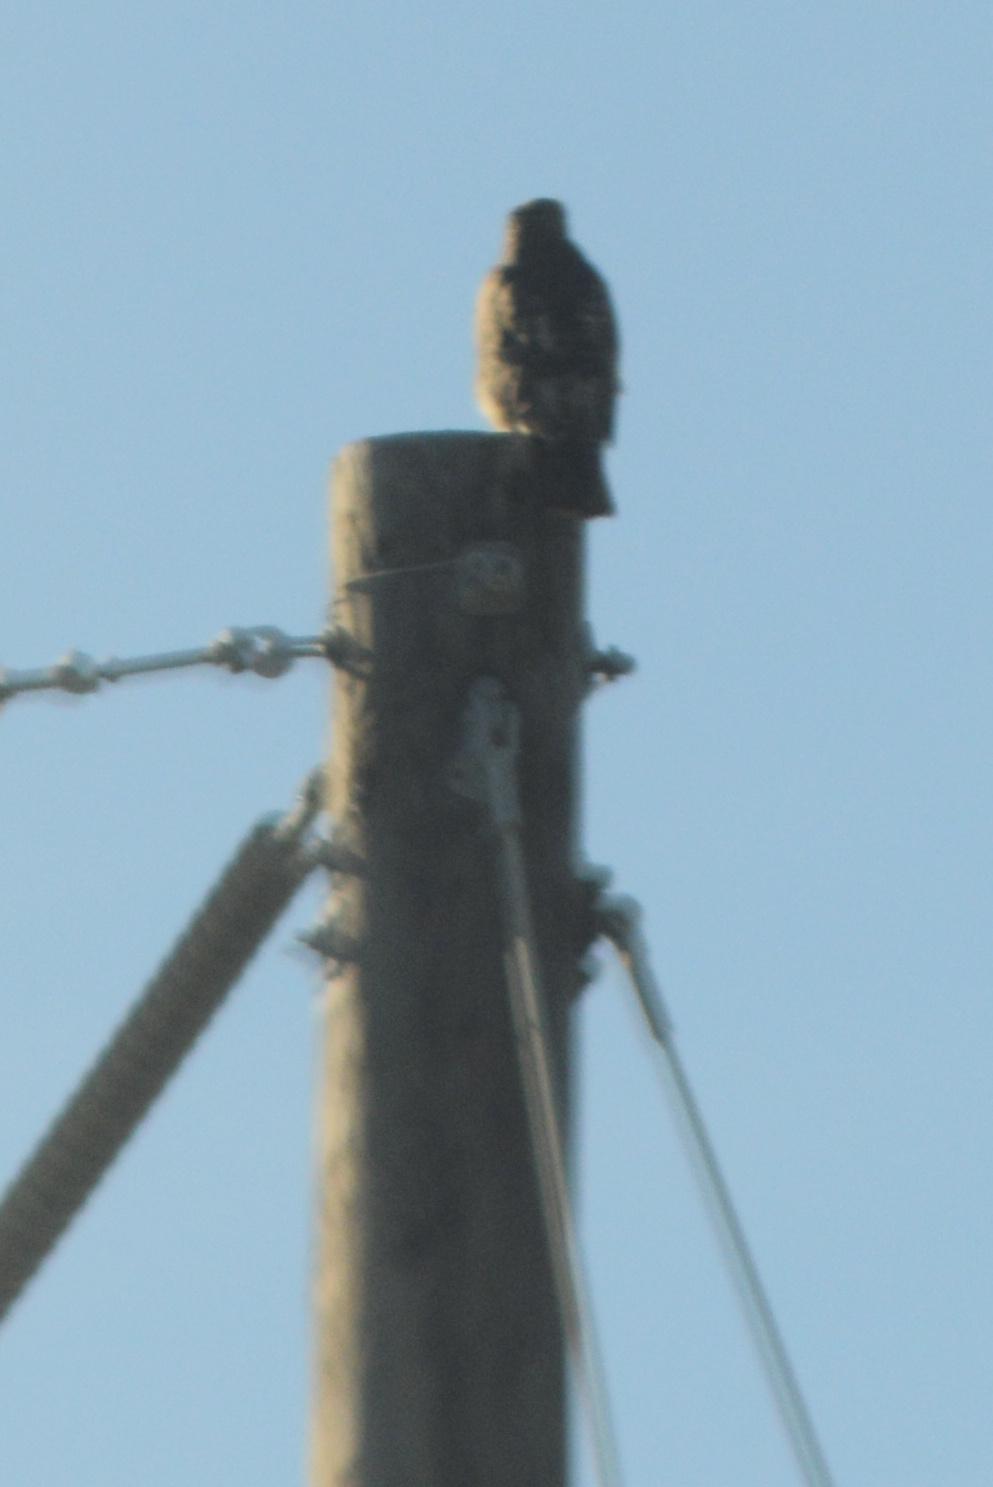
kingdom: Animalia
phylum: Chordata
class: Aves
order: Accipitriformes
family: Accipitridae
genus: Buteo
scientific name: Buteo jamaicensis
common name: Red-tailed hawk
